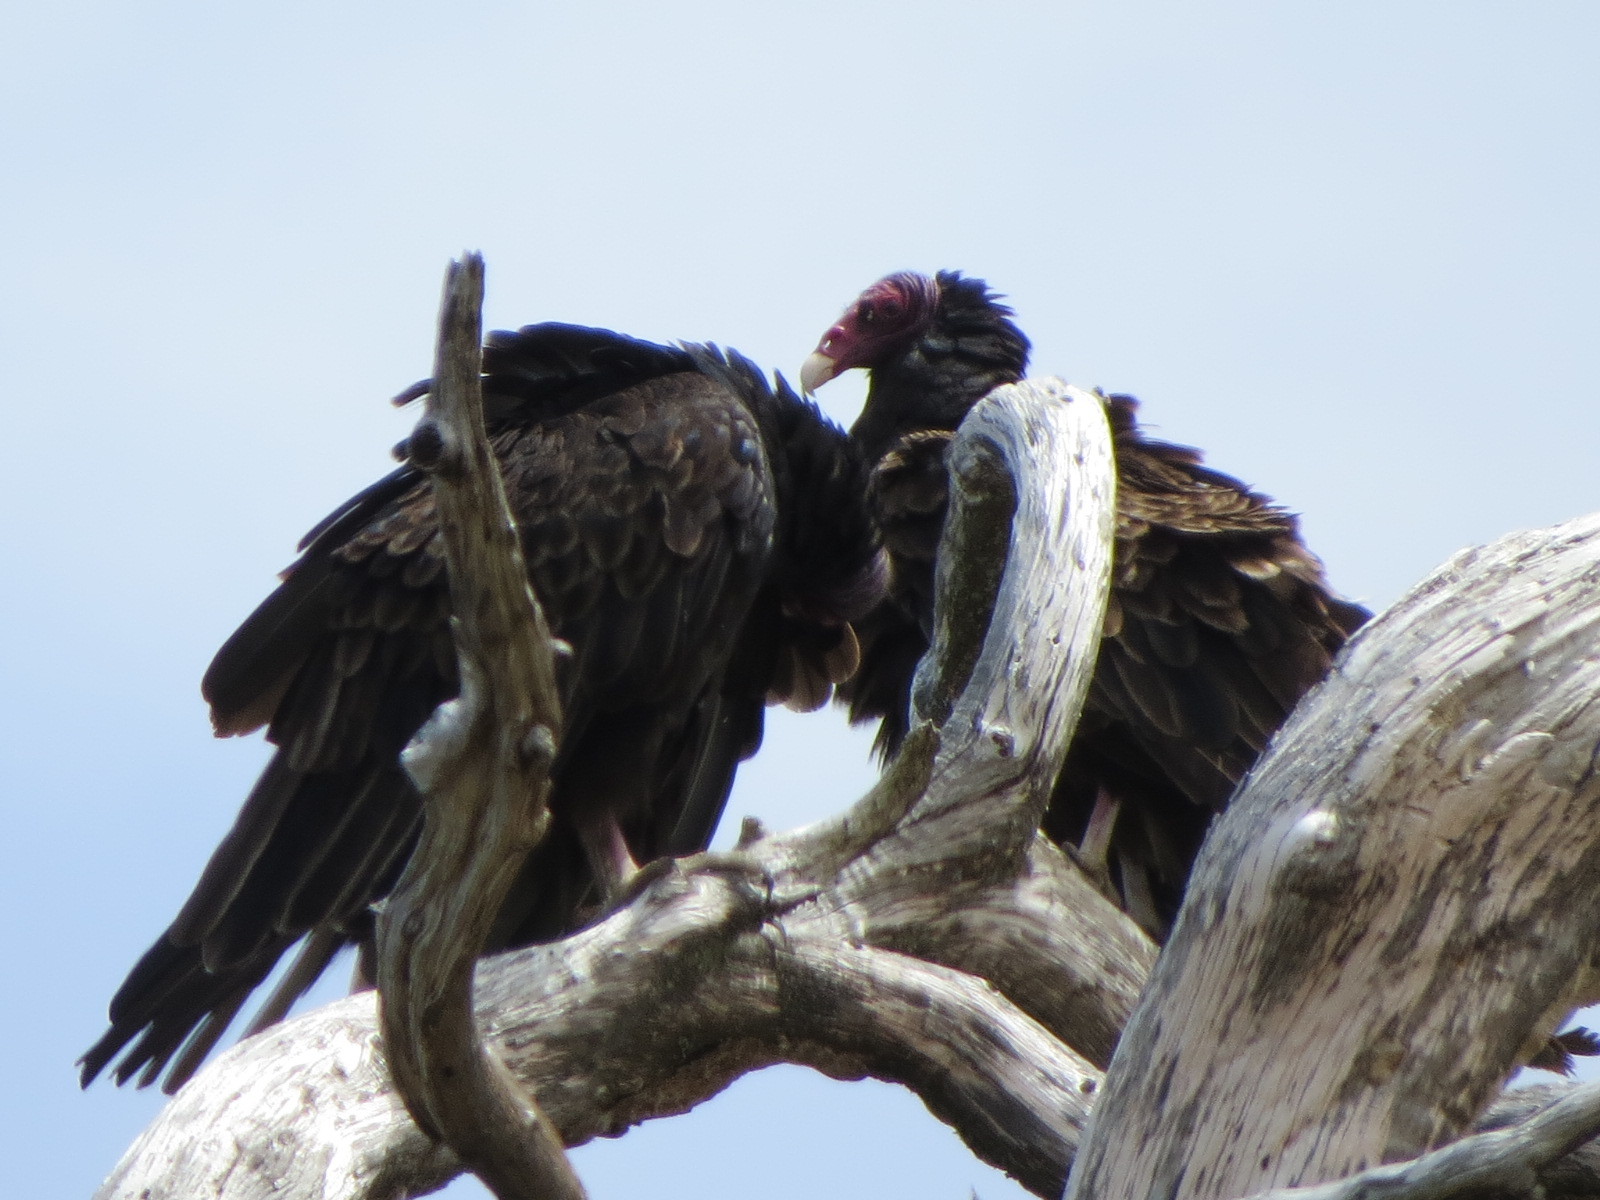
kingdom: Animalia
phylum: Chordata
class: Aves
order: Accipitriformes
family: Cathartidae
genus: Cathartes
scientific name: Cathartes aura
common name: Turkey vulture
